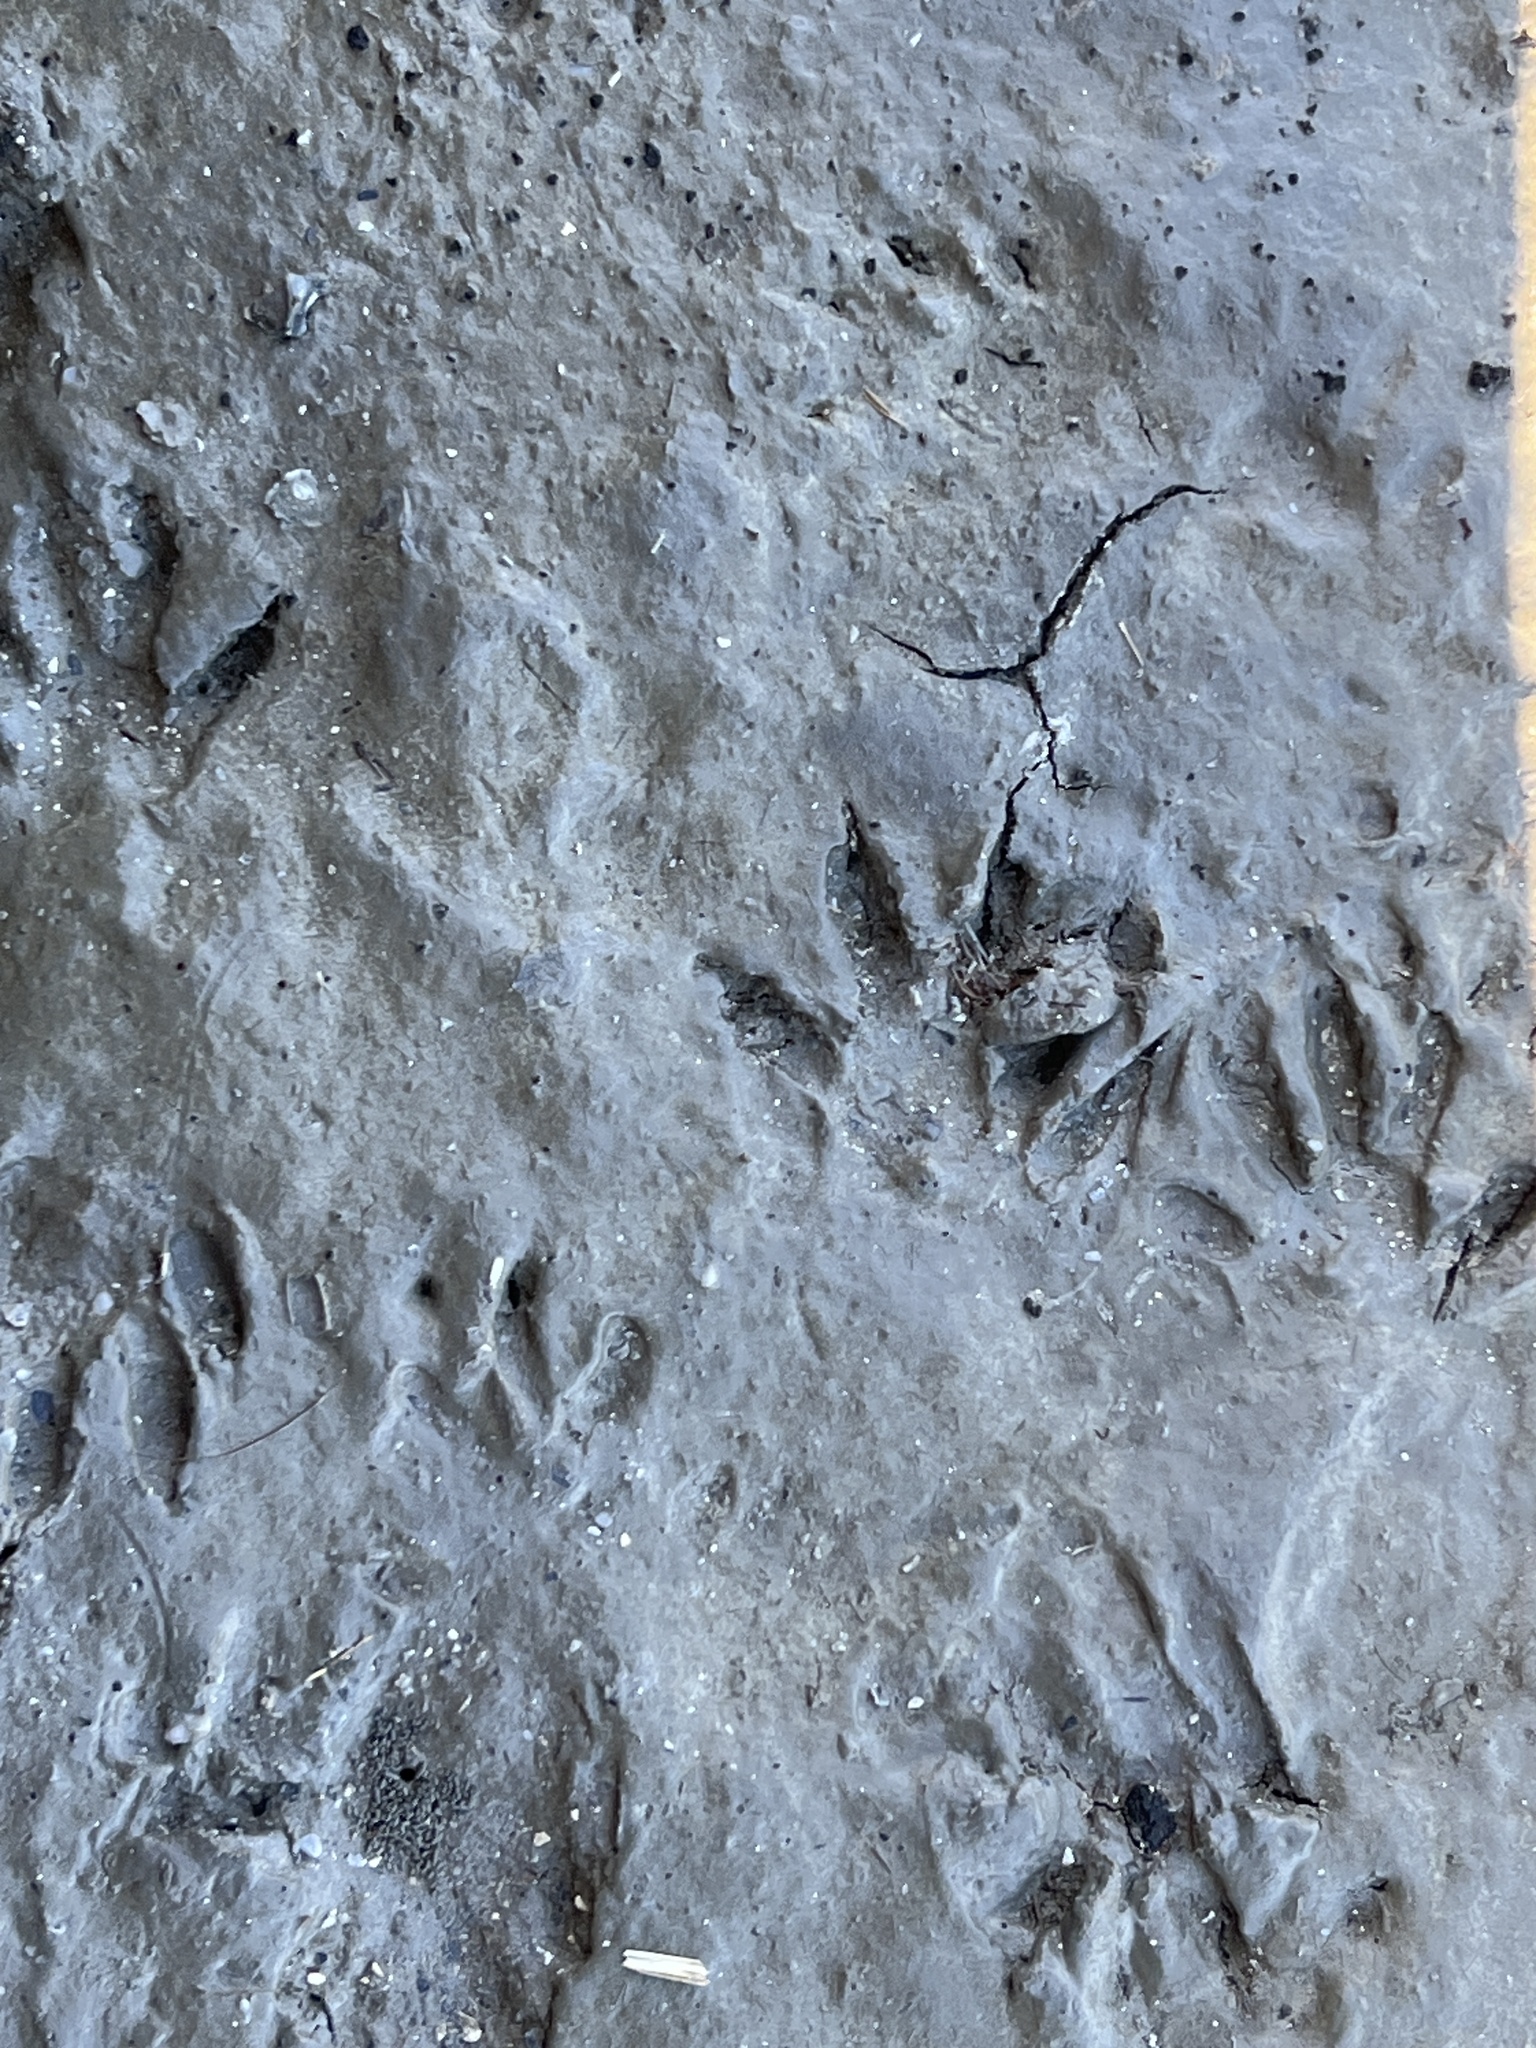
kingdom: Animalia
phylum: Chordata
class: Mammalia
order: Carnivora
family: Procyonidae
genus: Procyon
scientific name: Procyon lotor
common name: Raccoon
